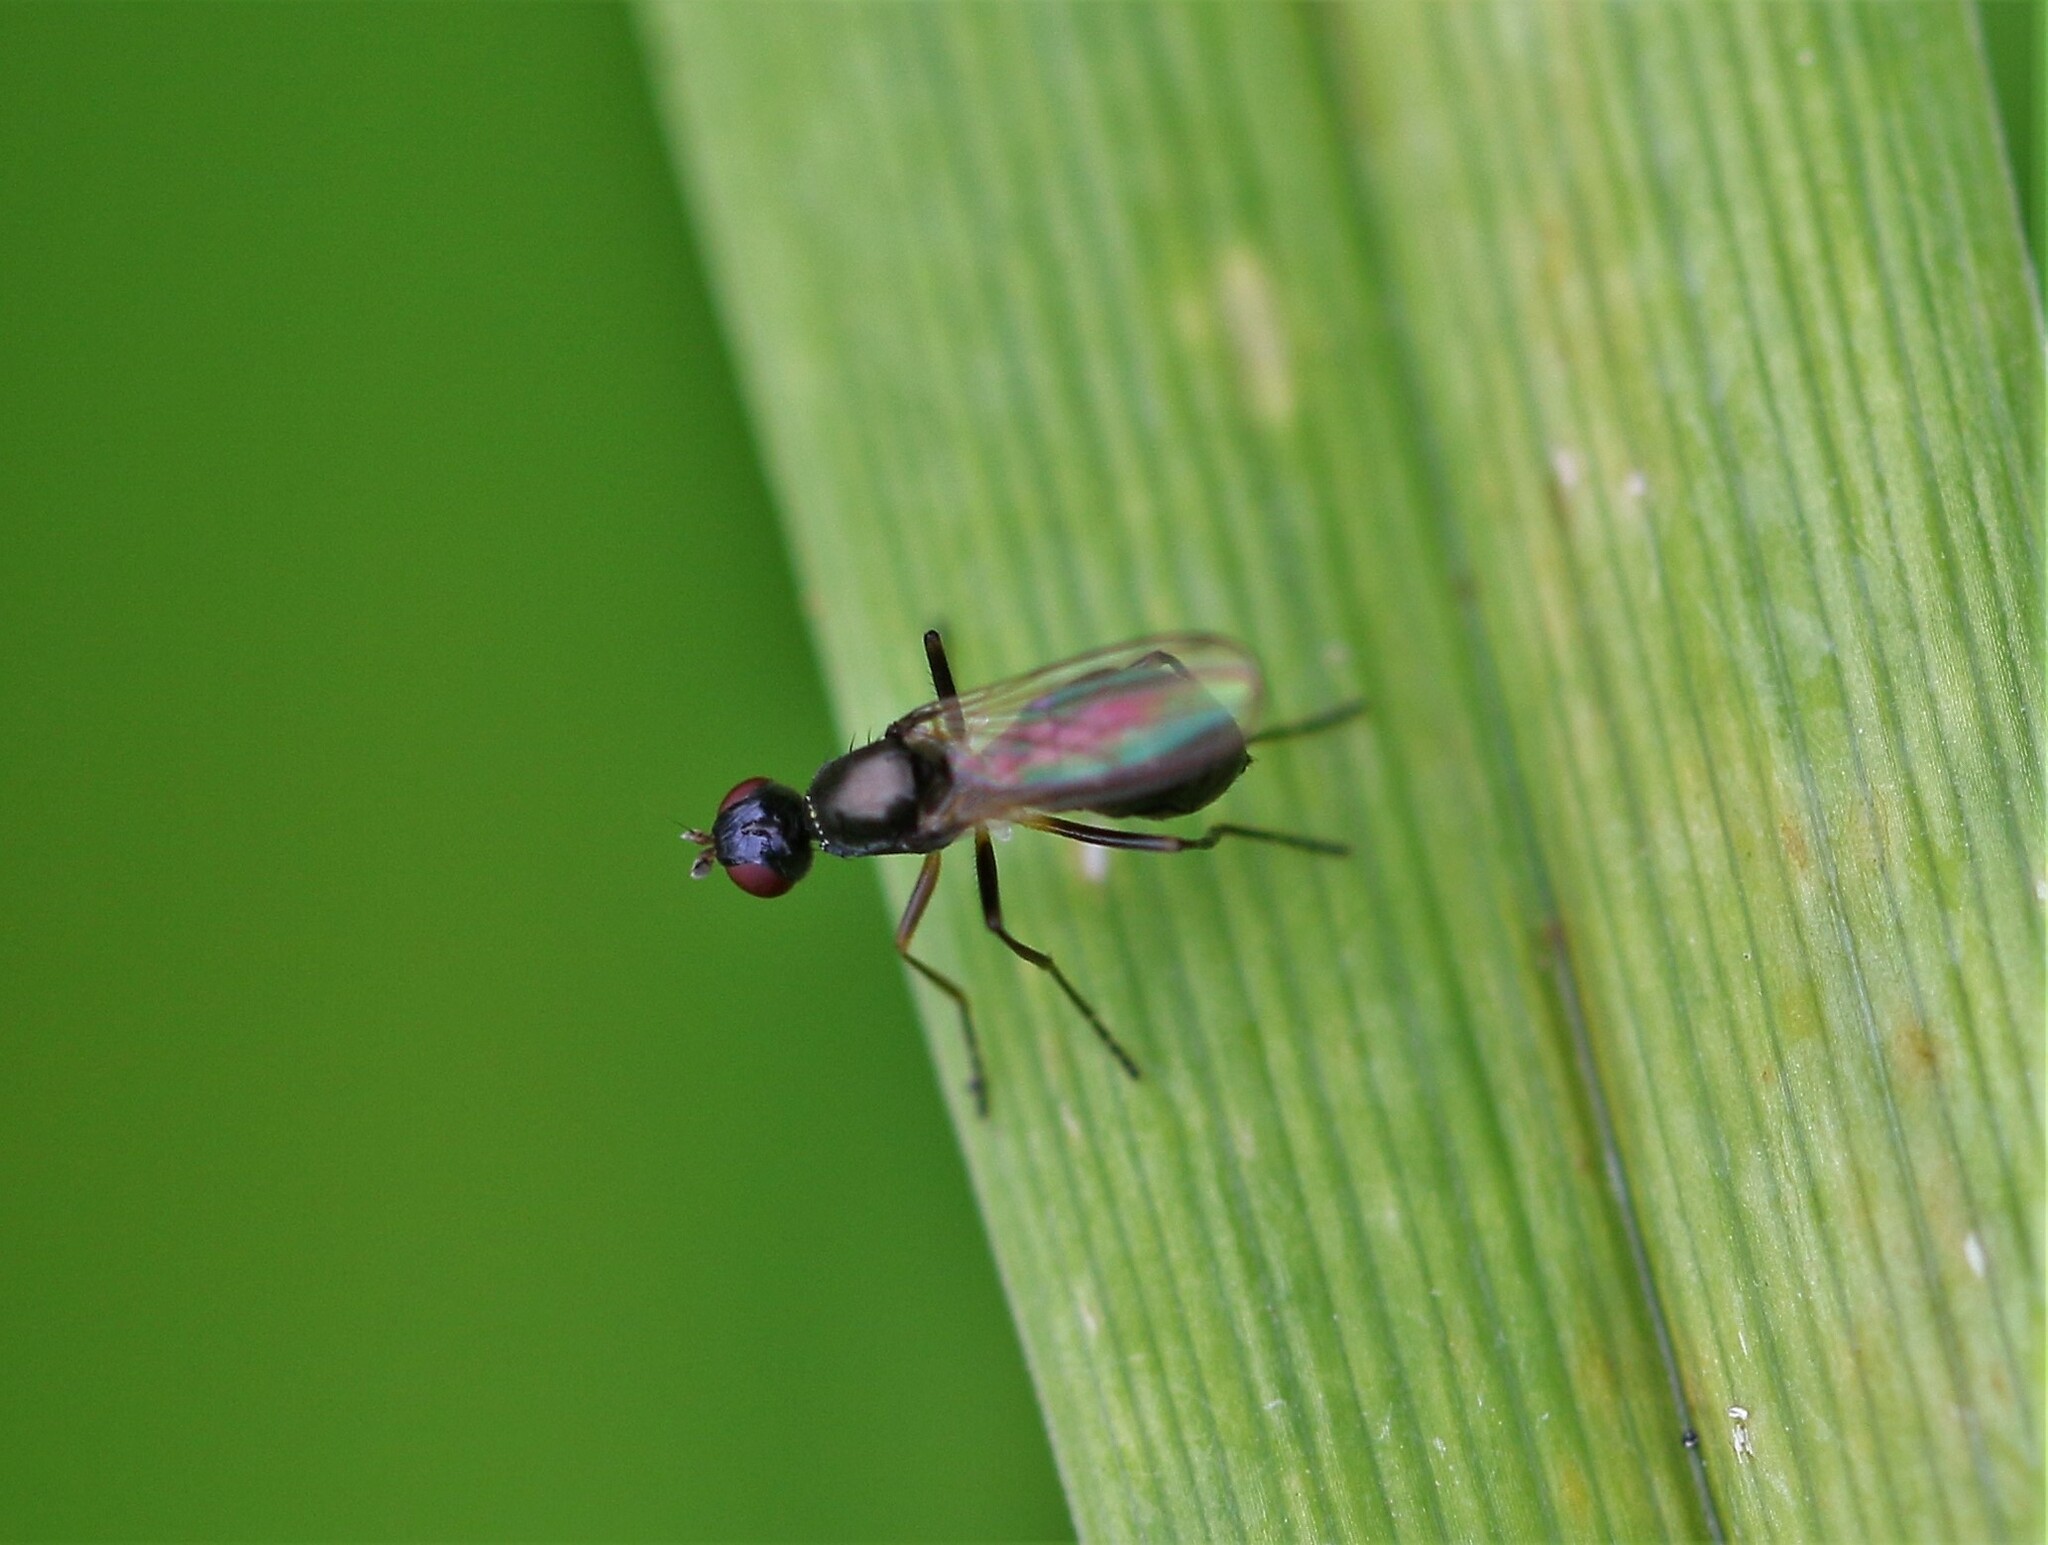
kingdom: Animalia
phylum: Arthropoda
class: Insecta
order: Diptera
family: Sepsidae
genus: Nemopoda
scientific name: Nemopoda nitidula
